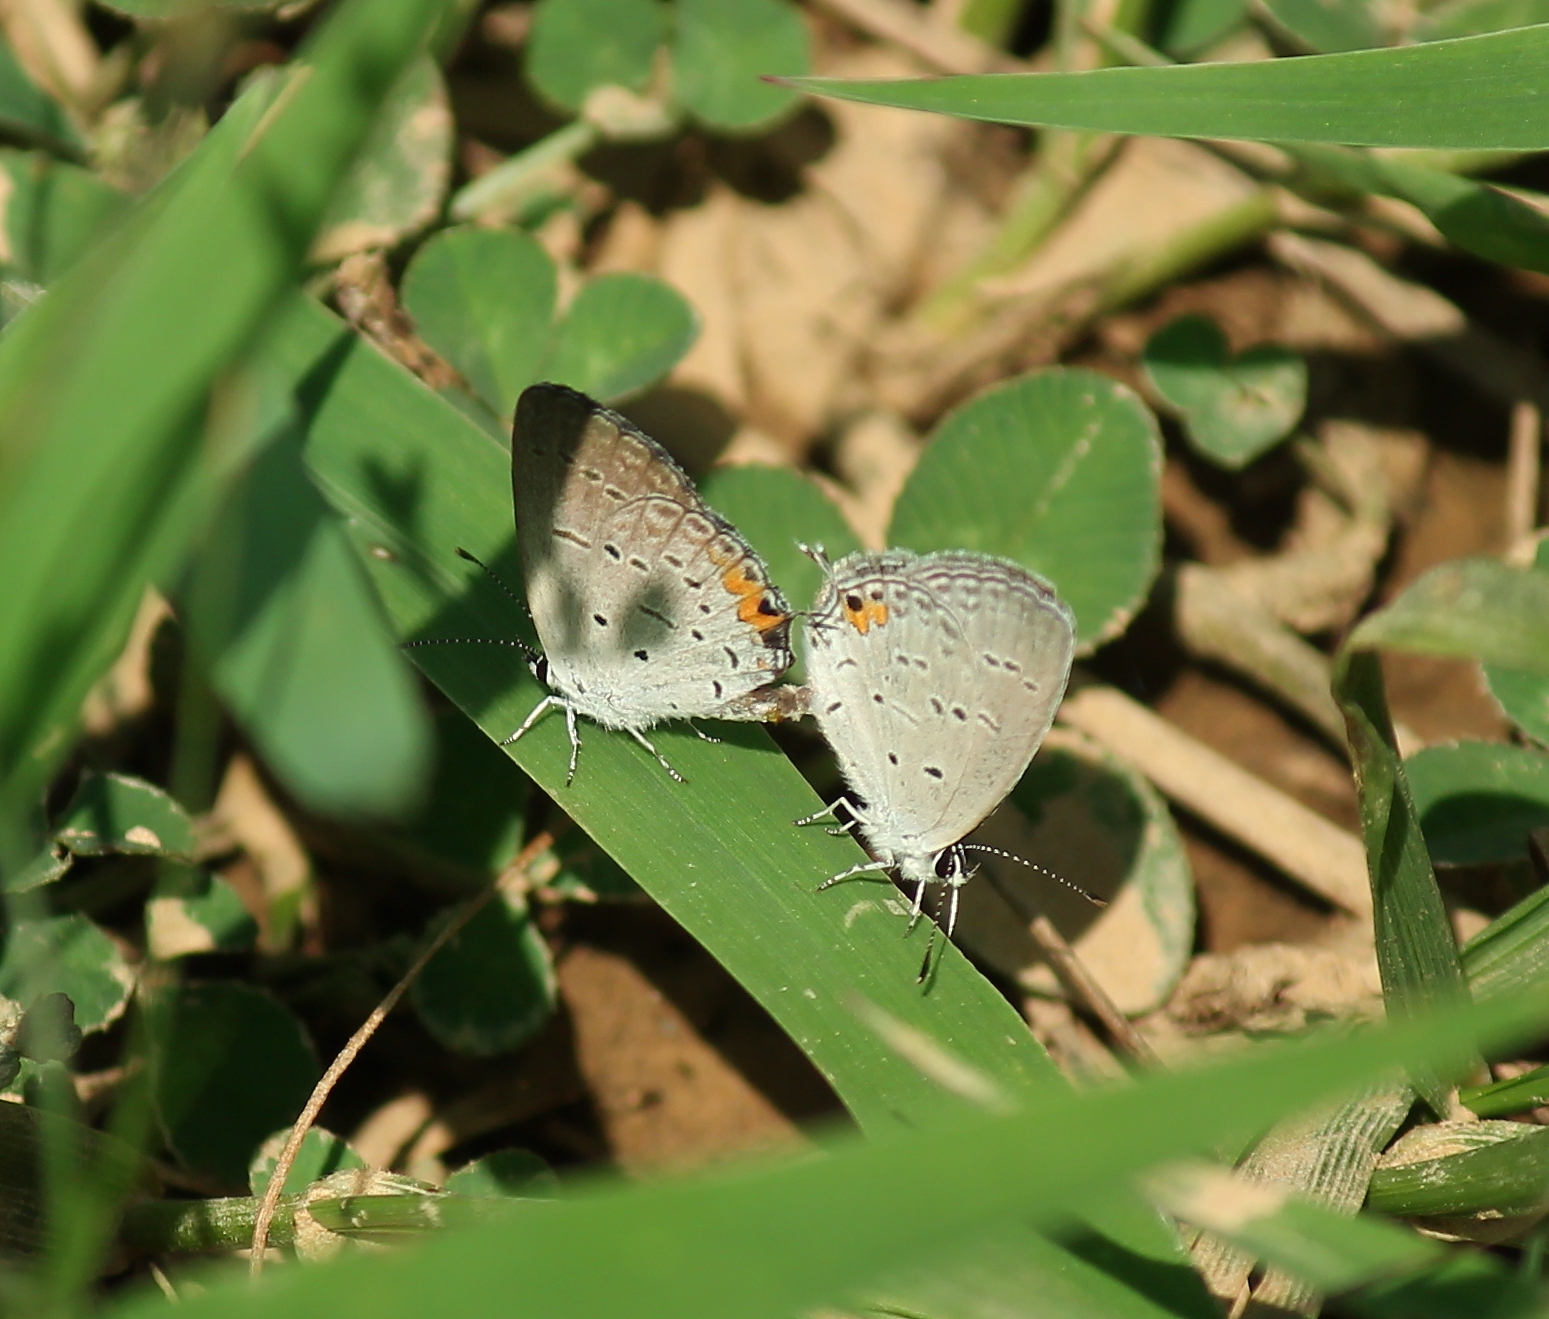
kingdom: Animalia
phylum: Arthropoda
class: Insecta
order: Lepidoptera
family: Lycaenidae
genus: Elkalyce
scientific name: Elkalyce comyntas
